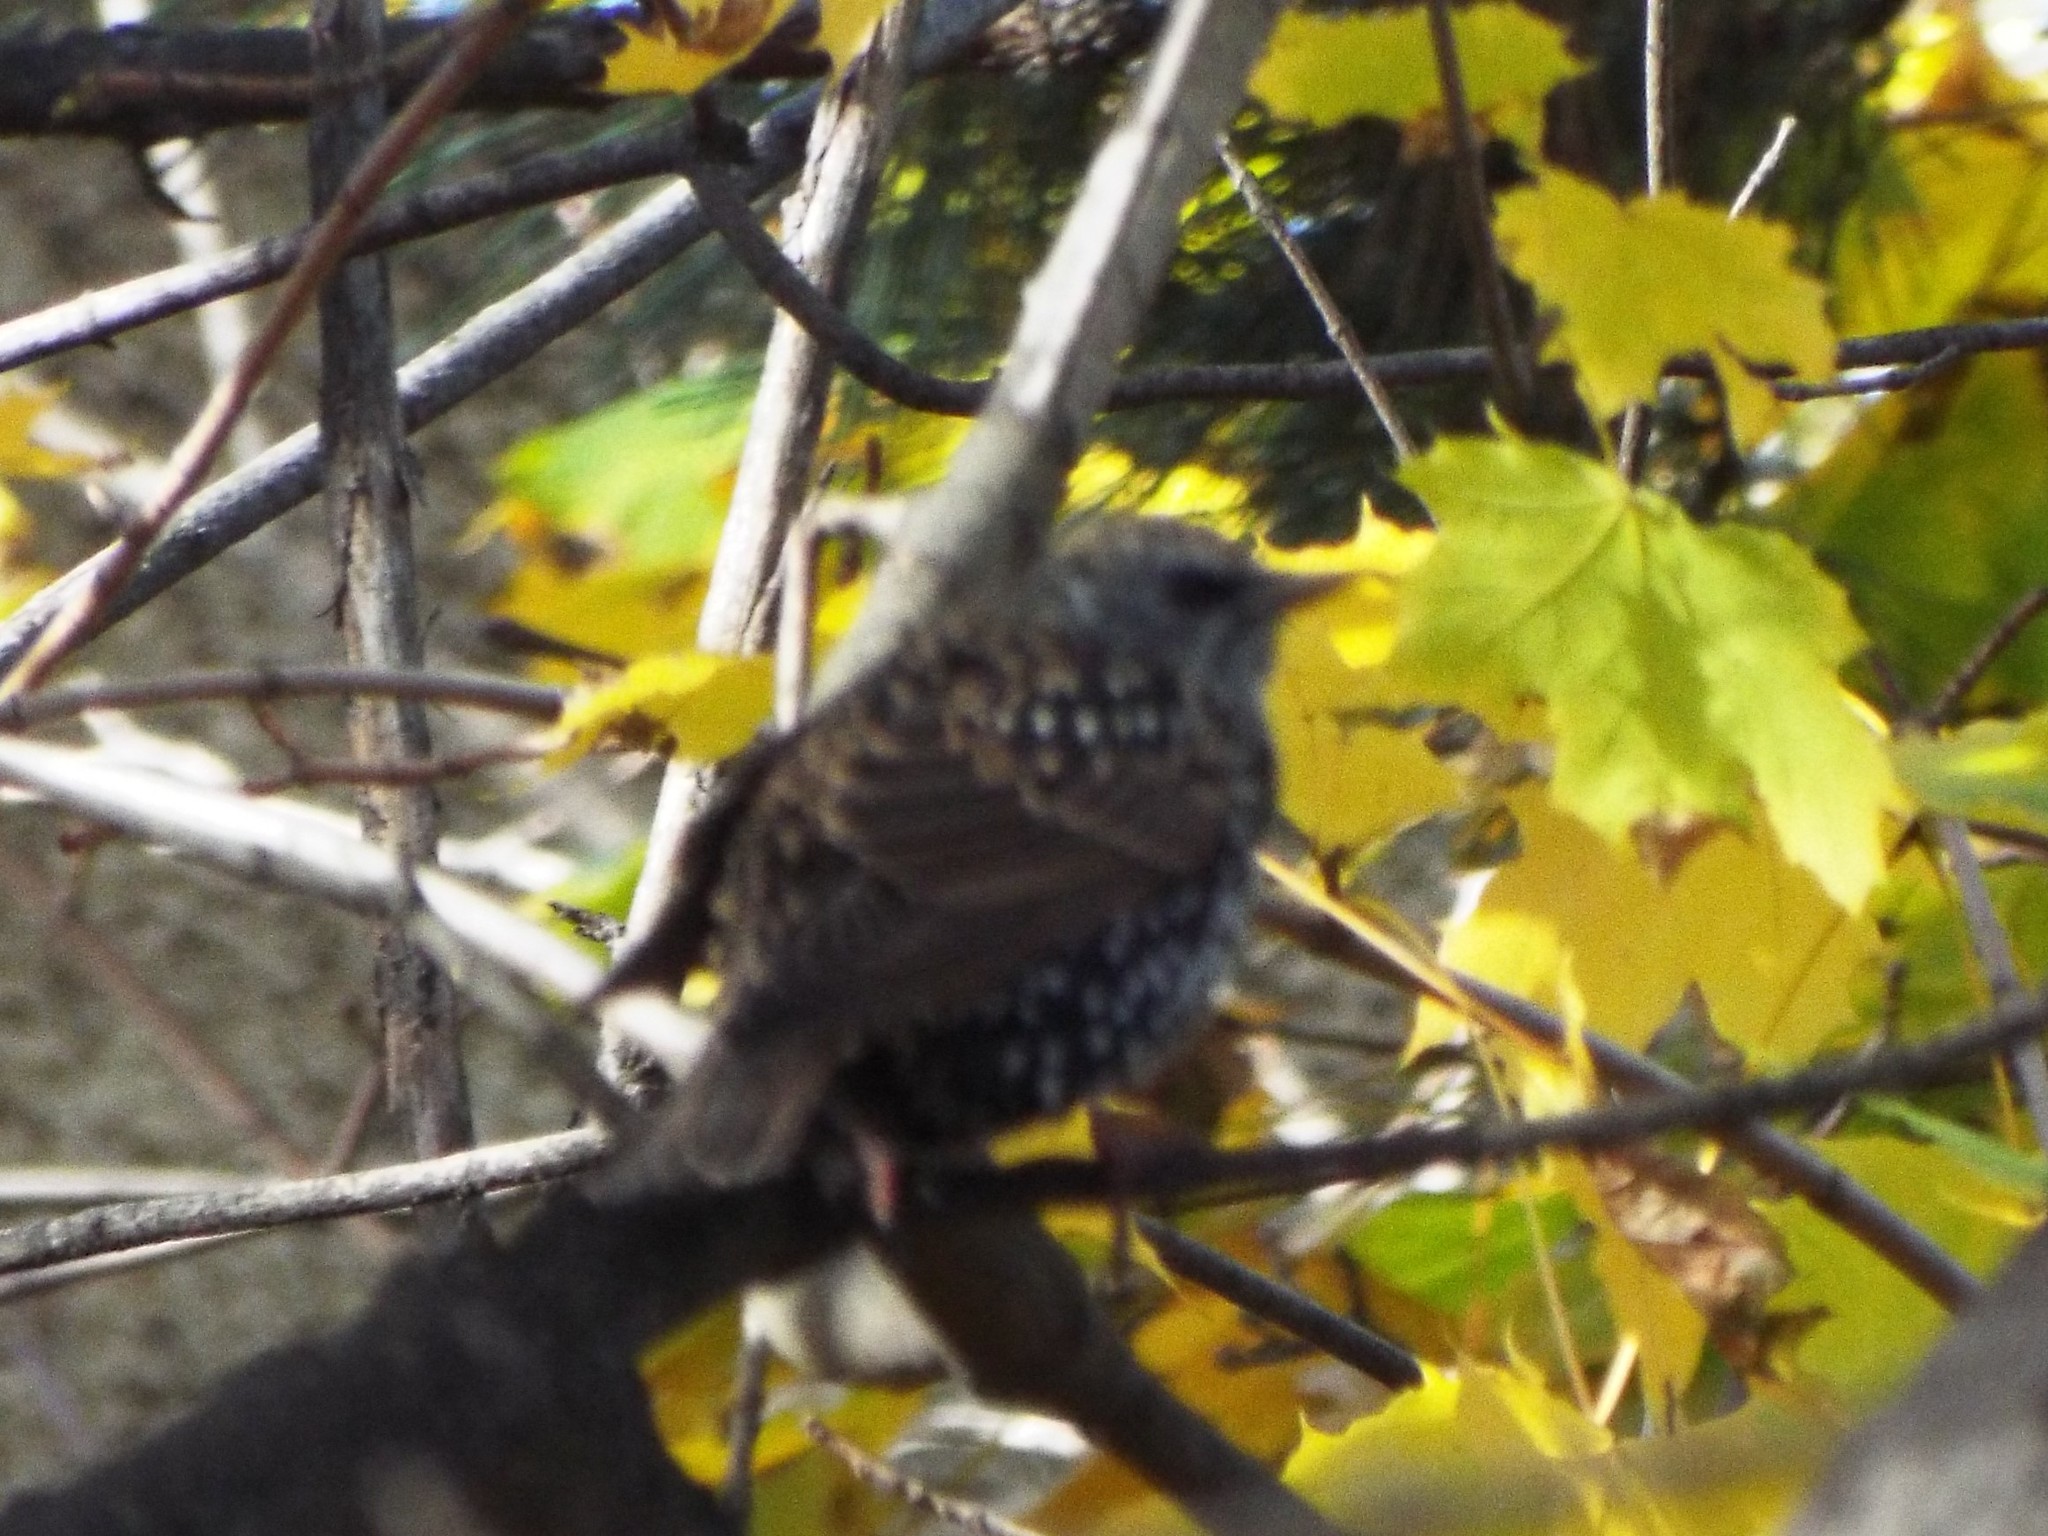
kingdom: Animalia
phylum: Chordata
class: Aves
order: Passeriformes
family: Sturnidae
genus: Sturnus
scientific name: Sturnus vulgaris
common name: Common starling
